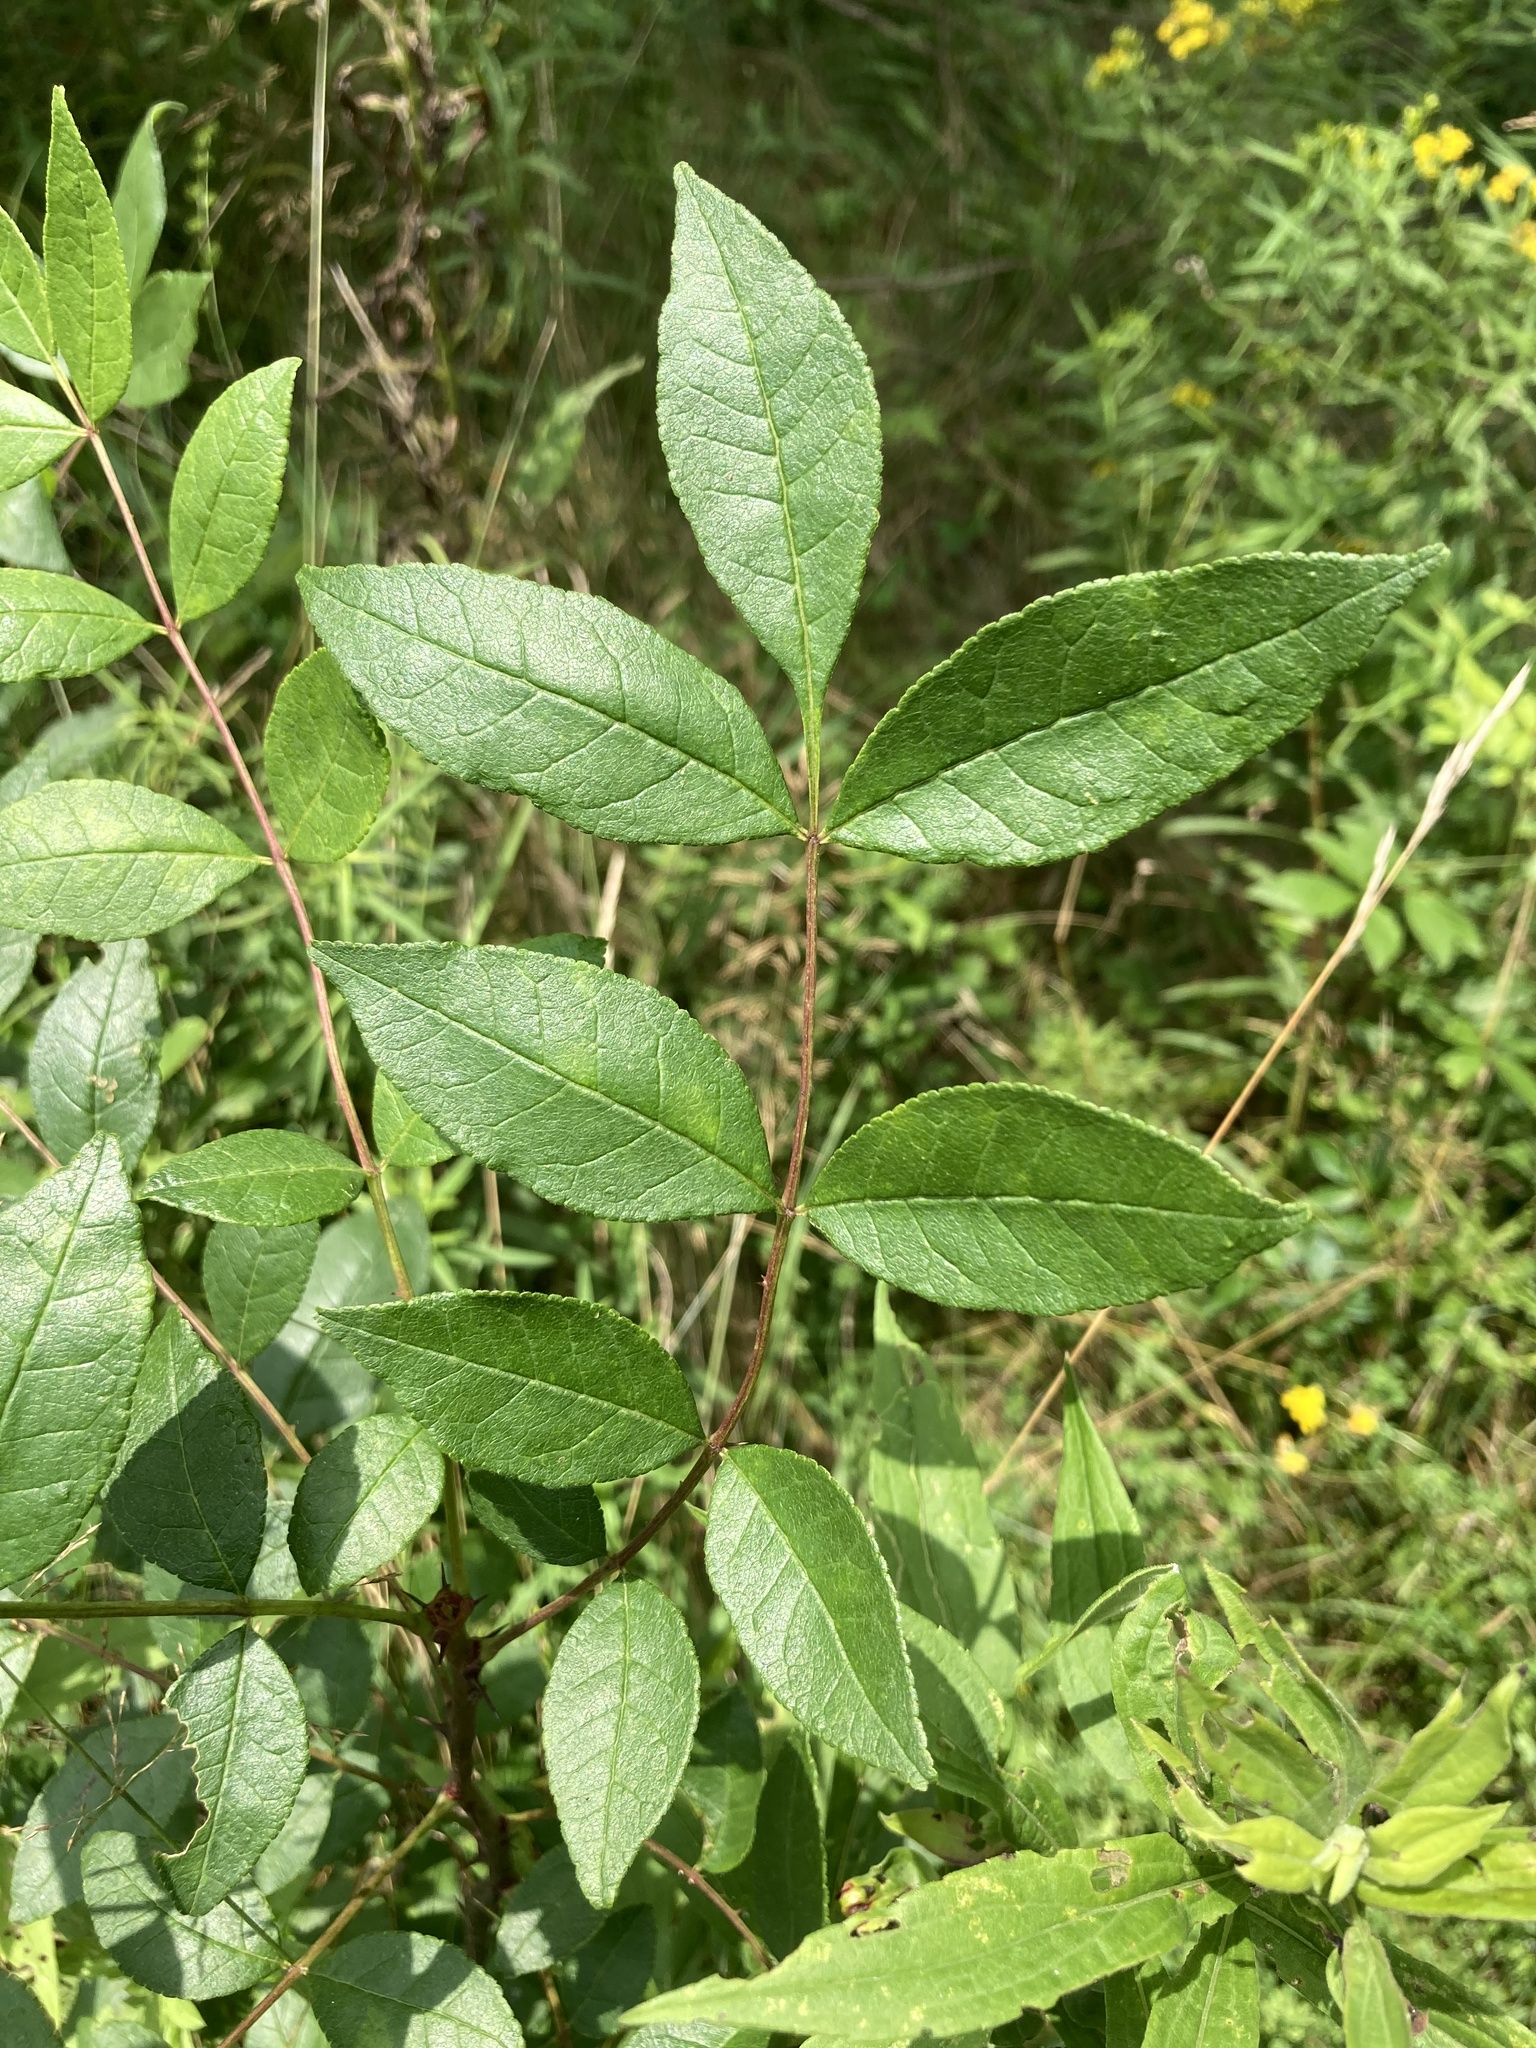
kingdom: Plantae
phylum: Tracheophyta
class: Magnoliopsida
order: Sapindales
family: Rutaceae
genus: Zanthoxylum
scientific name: Zanthoxylum americanum
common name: Northern prickly-ash
